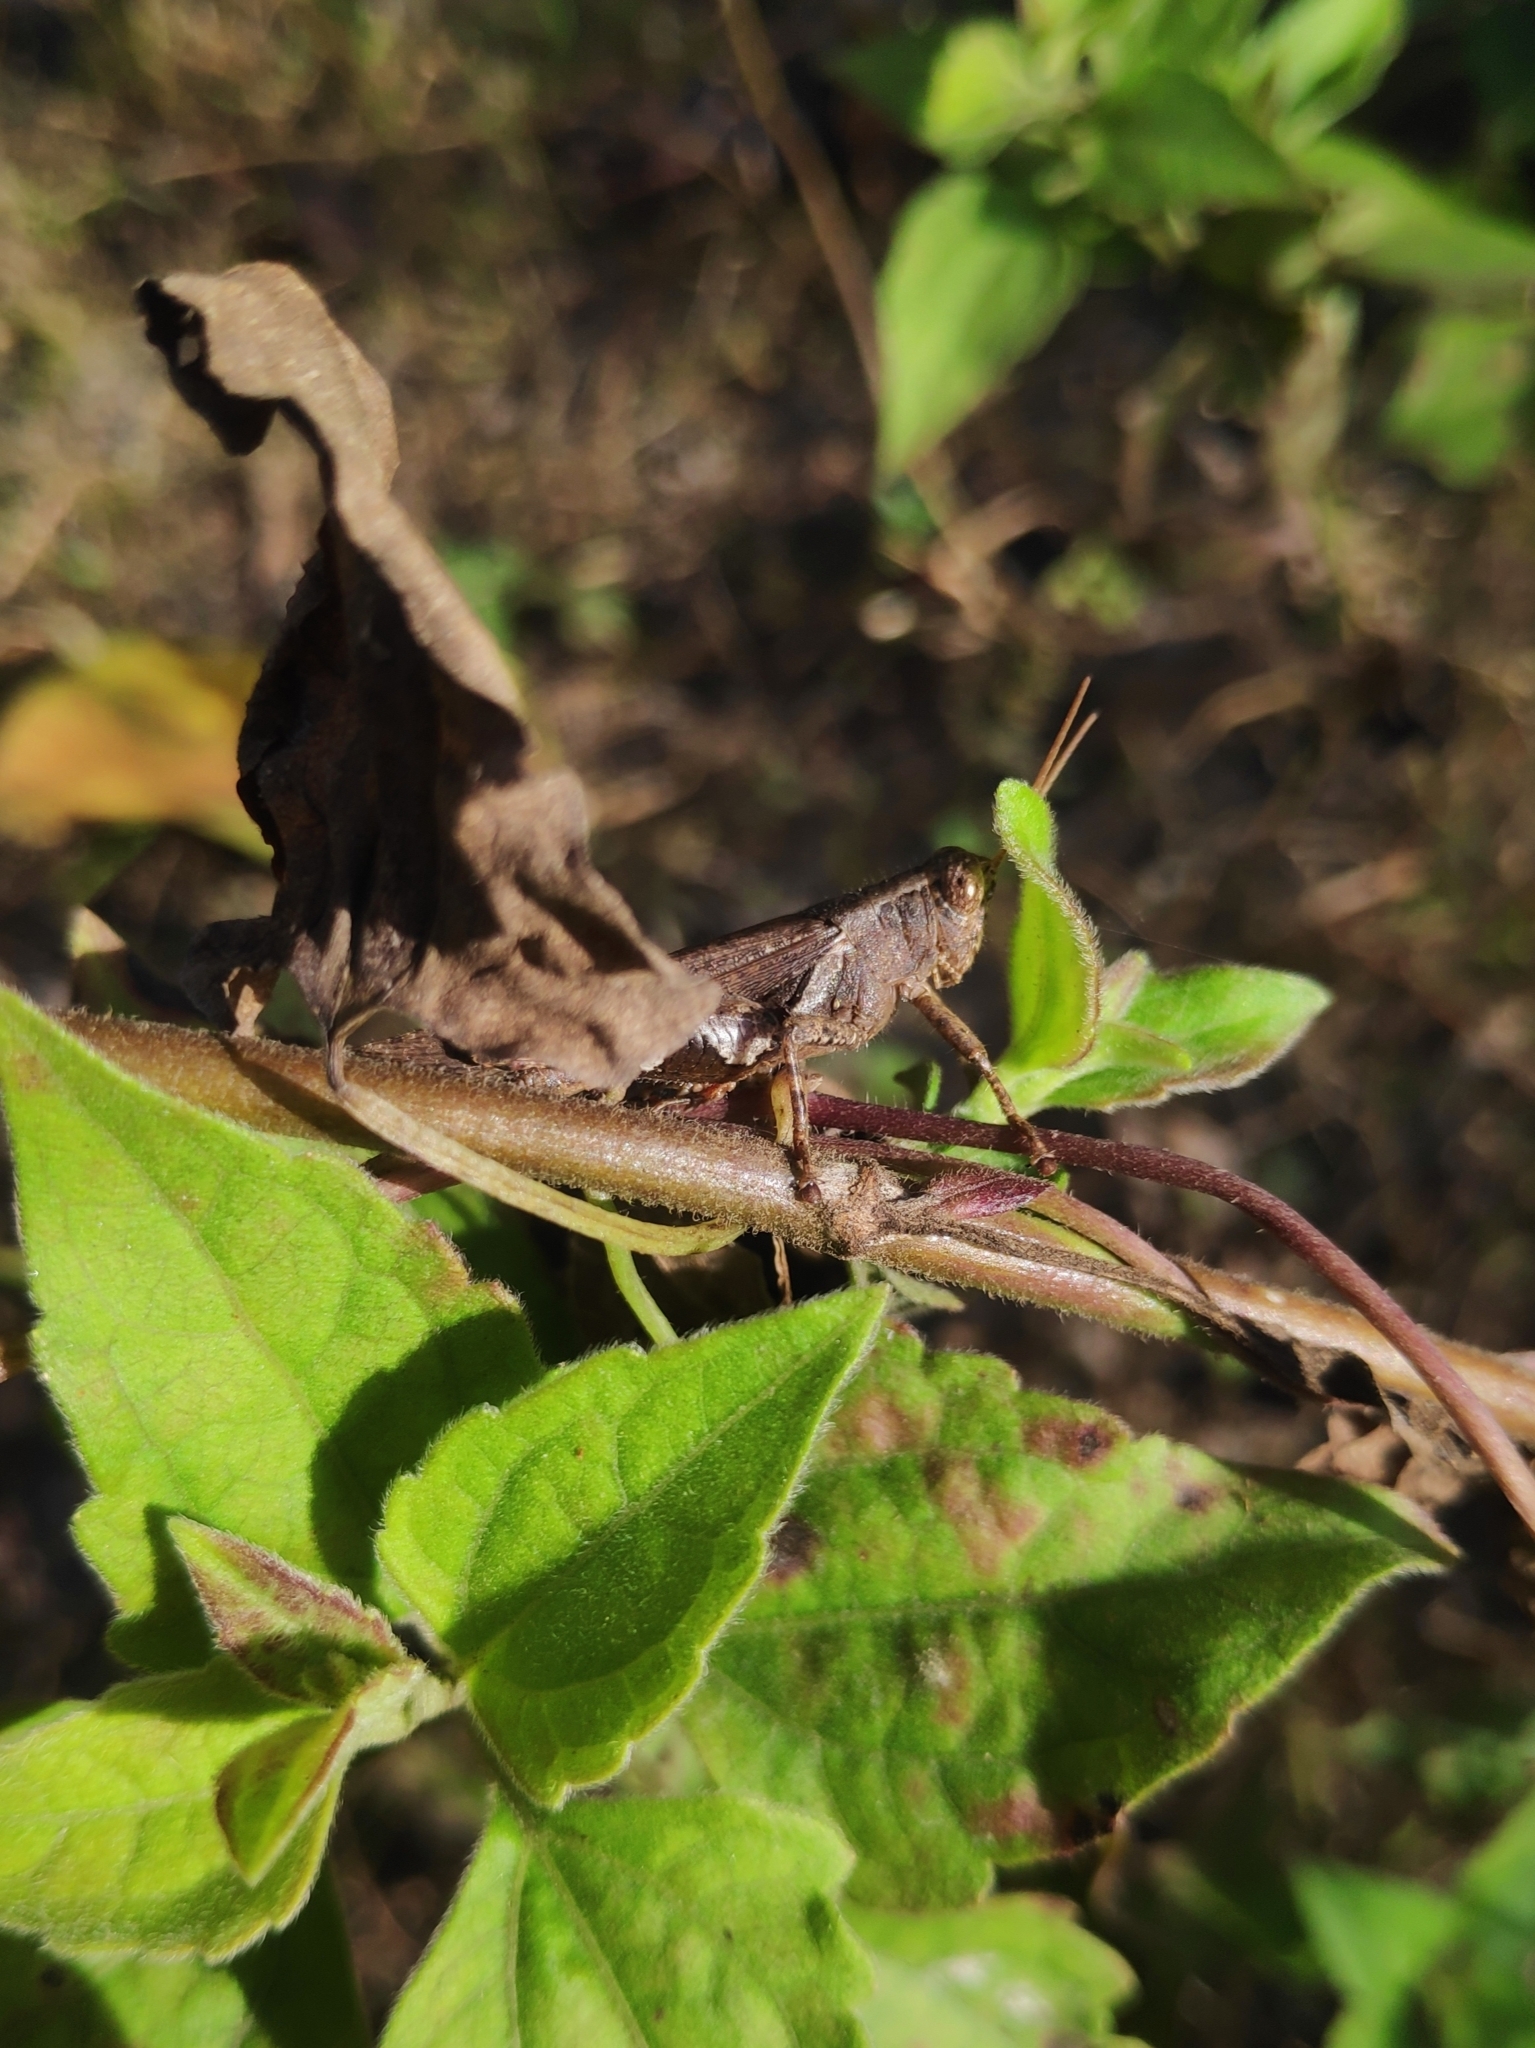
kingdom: Animalia
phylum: Arthropoda
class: Insecta
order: Orthoptera
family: Acrididae
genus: Xenocatantops
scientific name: Xenocatantops humile
